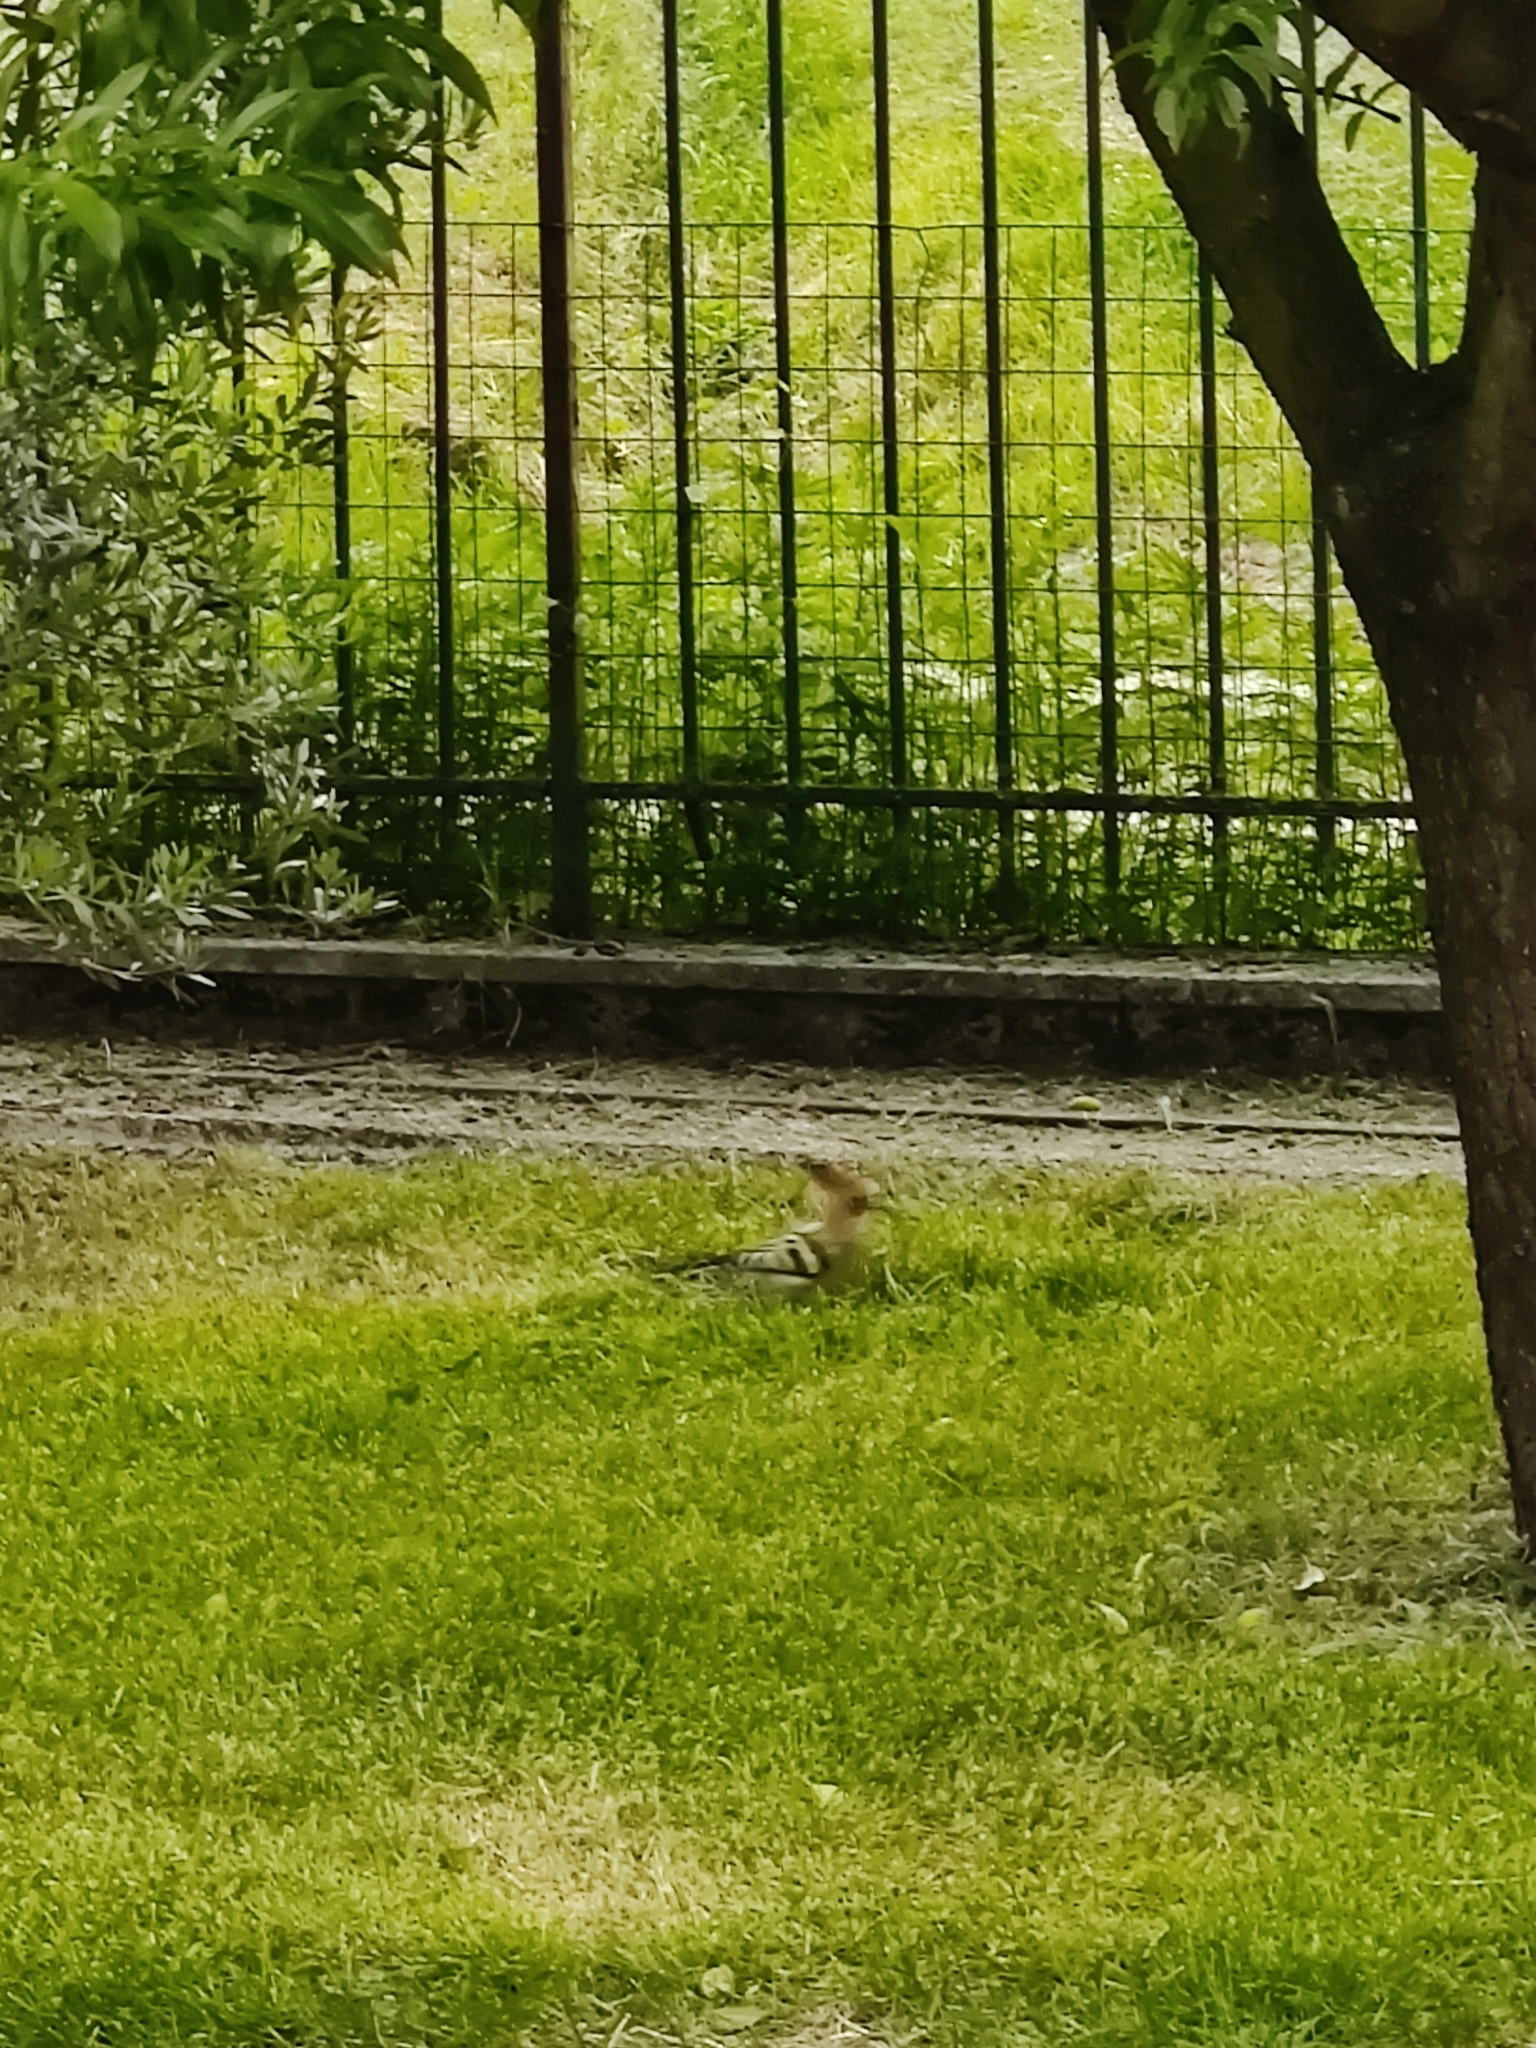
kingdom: Animalia
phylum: Chordata
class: Aves
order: Bucerotiformes
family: Upupidae
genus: Upupa
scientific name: Upupa epops
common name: Eurasian hoopoe
